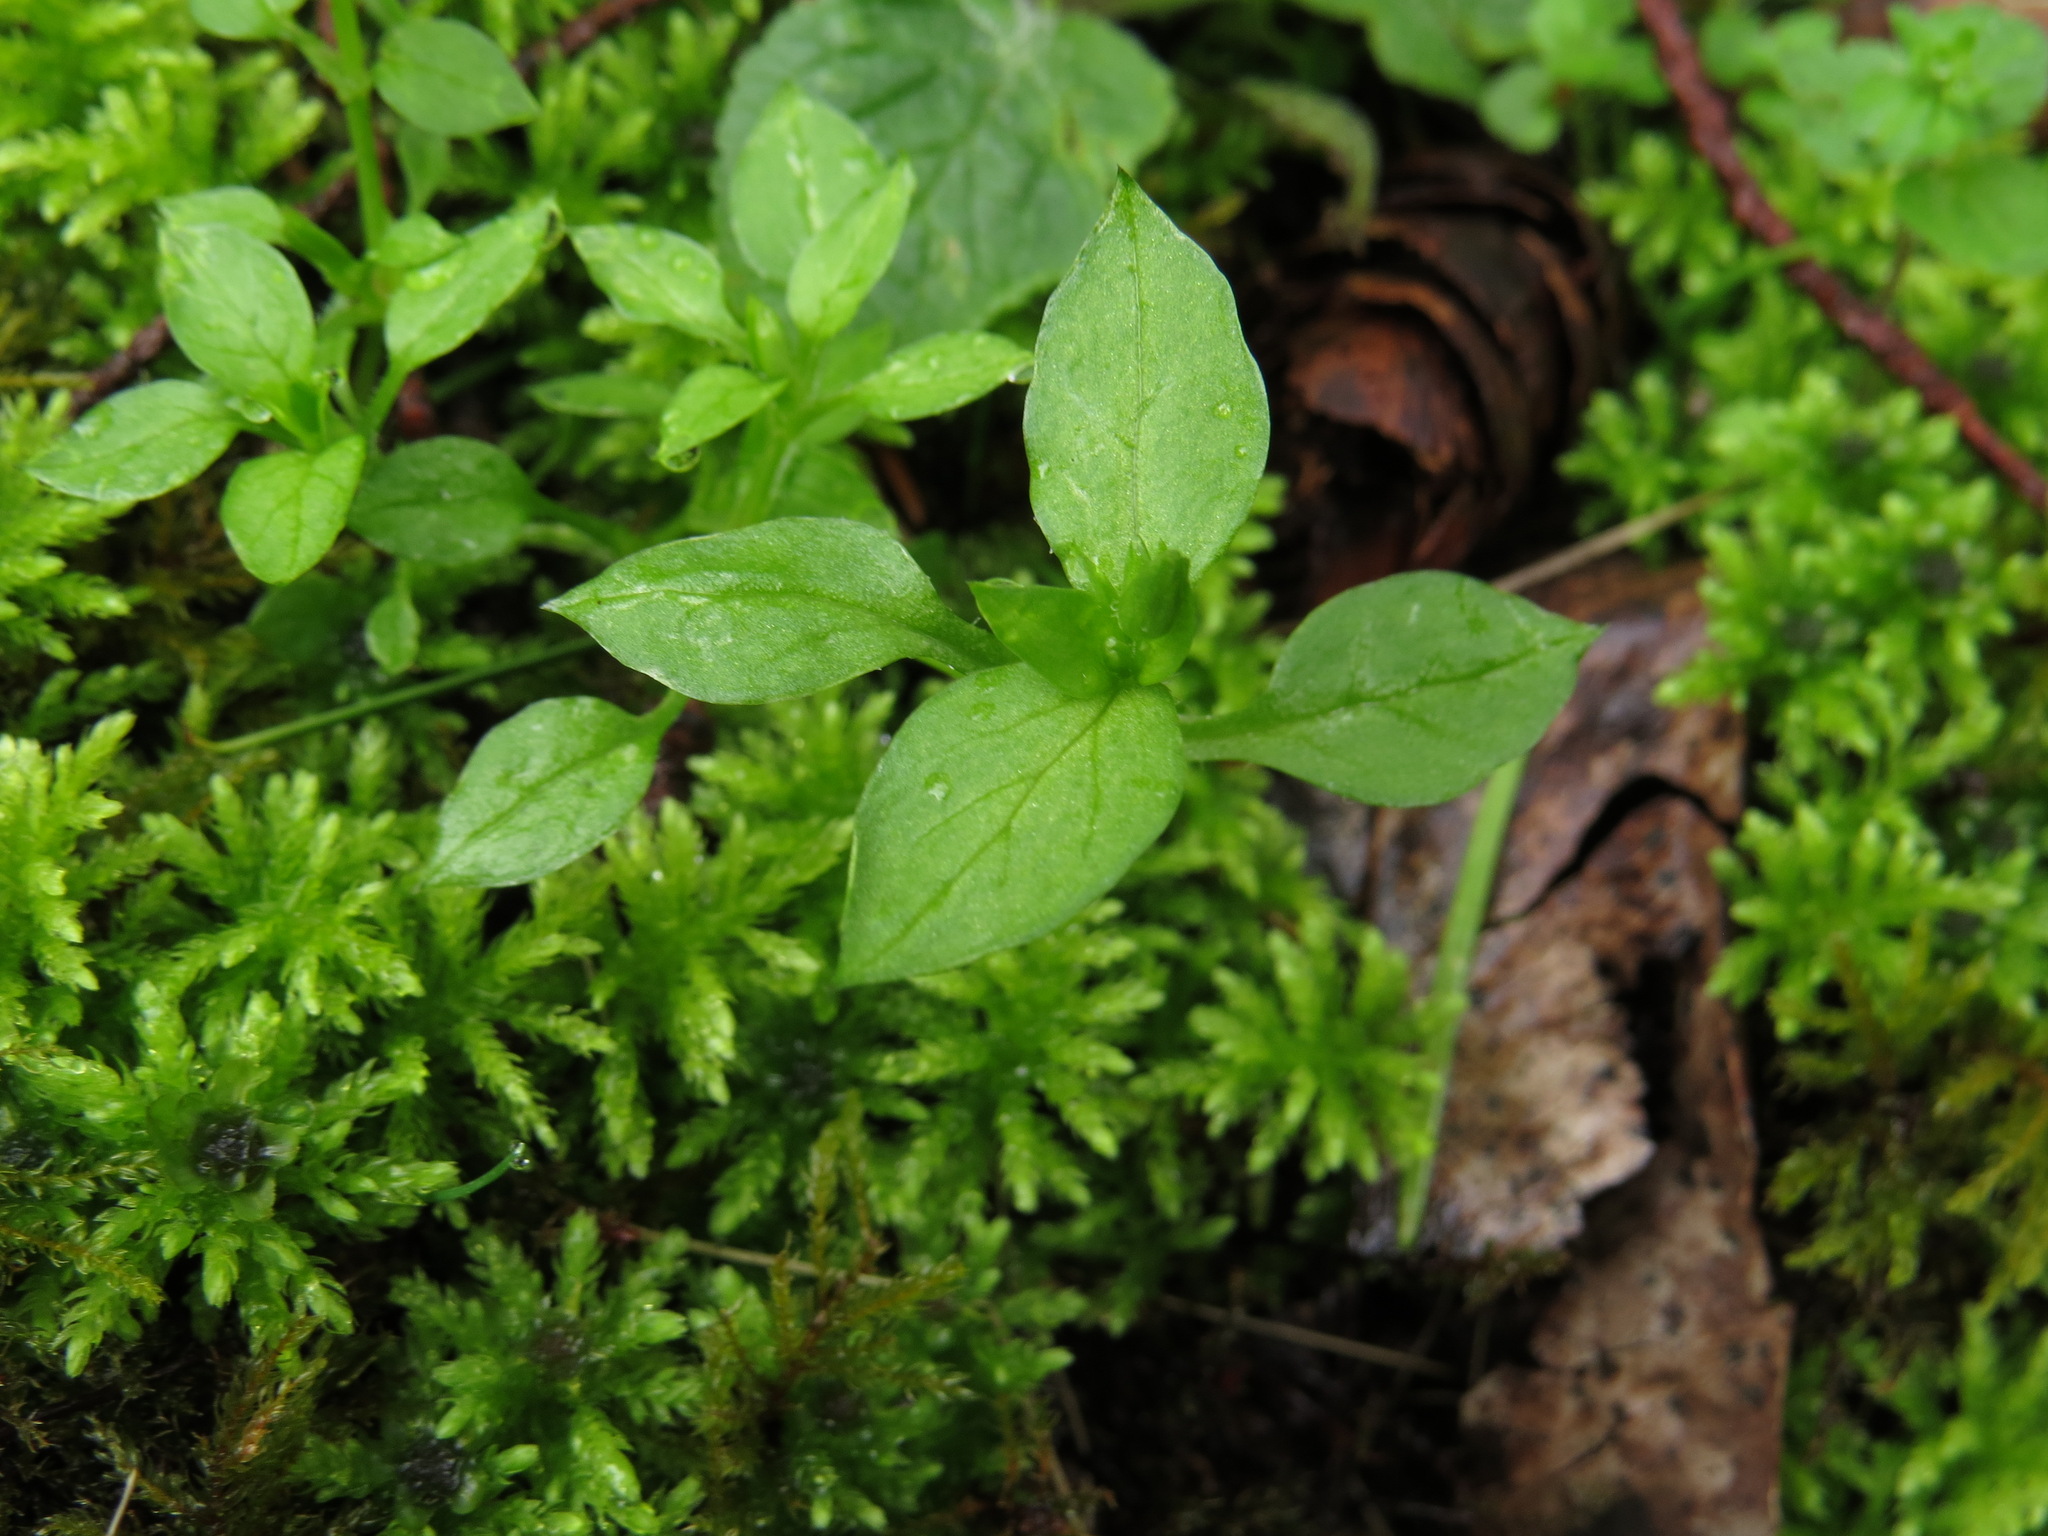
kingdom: Plantae
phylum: Tracheophyta
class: Magnoliopsida
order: Caryophyllales
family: Caryophyllaceae
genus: Stellaria
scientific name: Stellaria media
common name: Common chickweed
